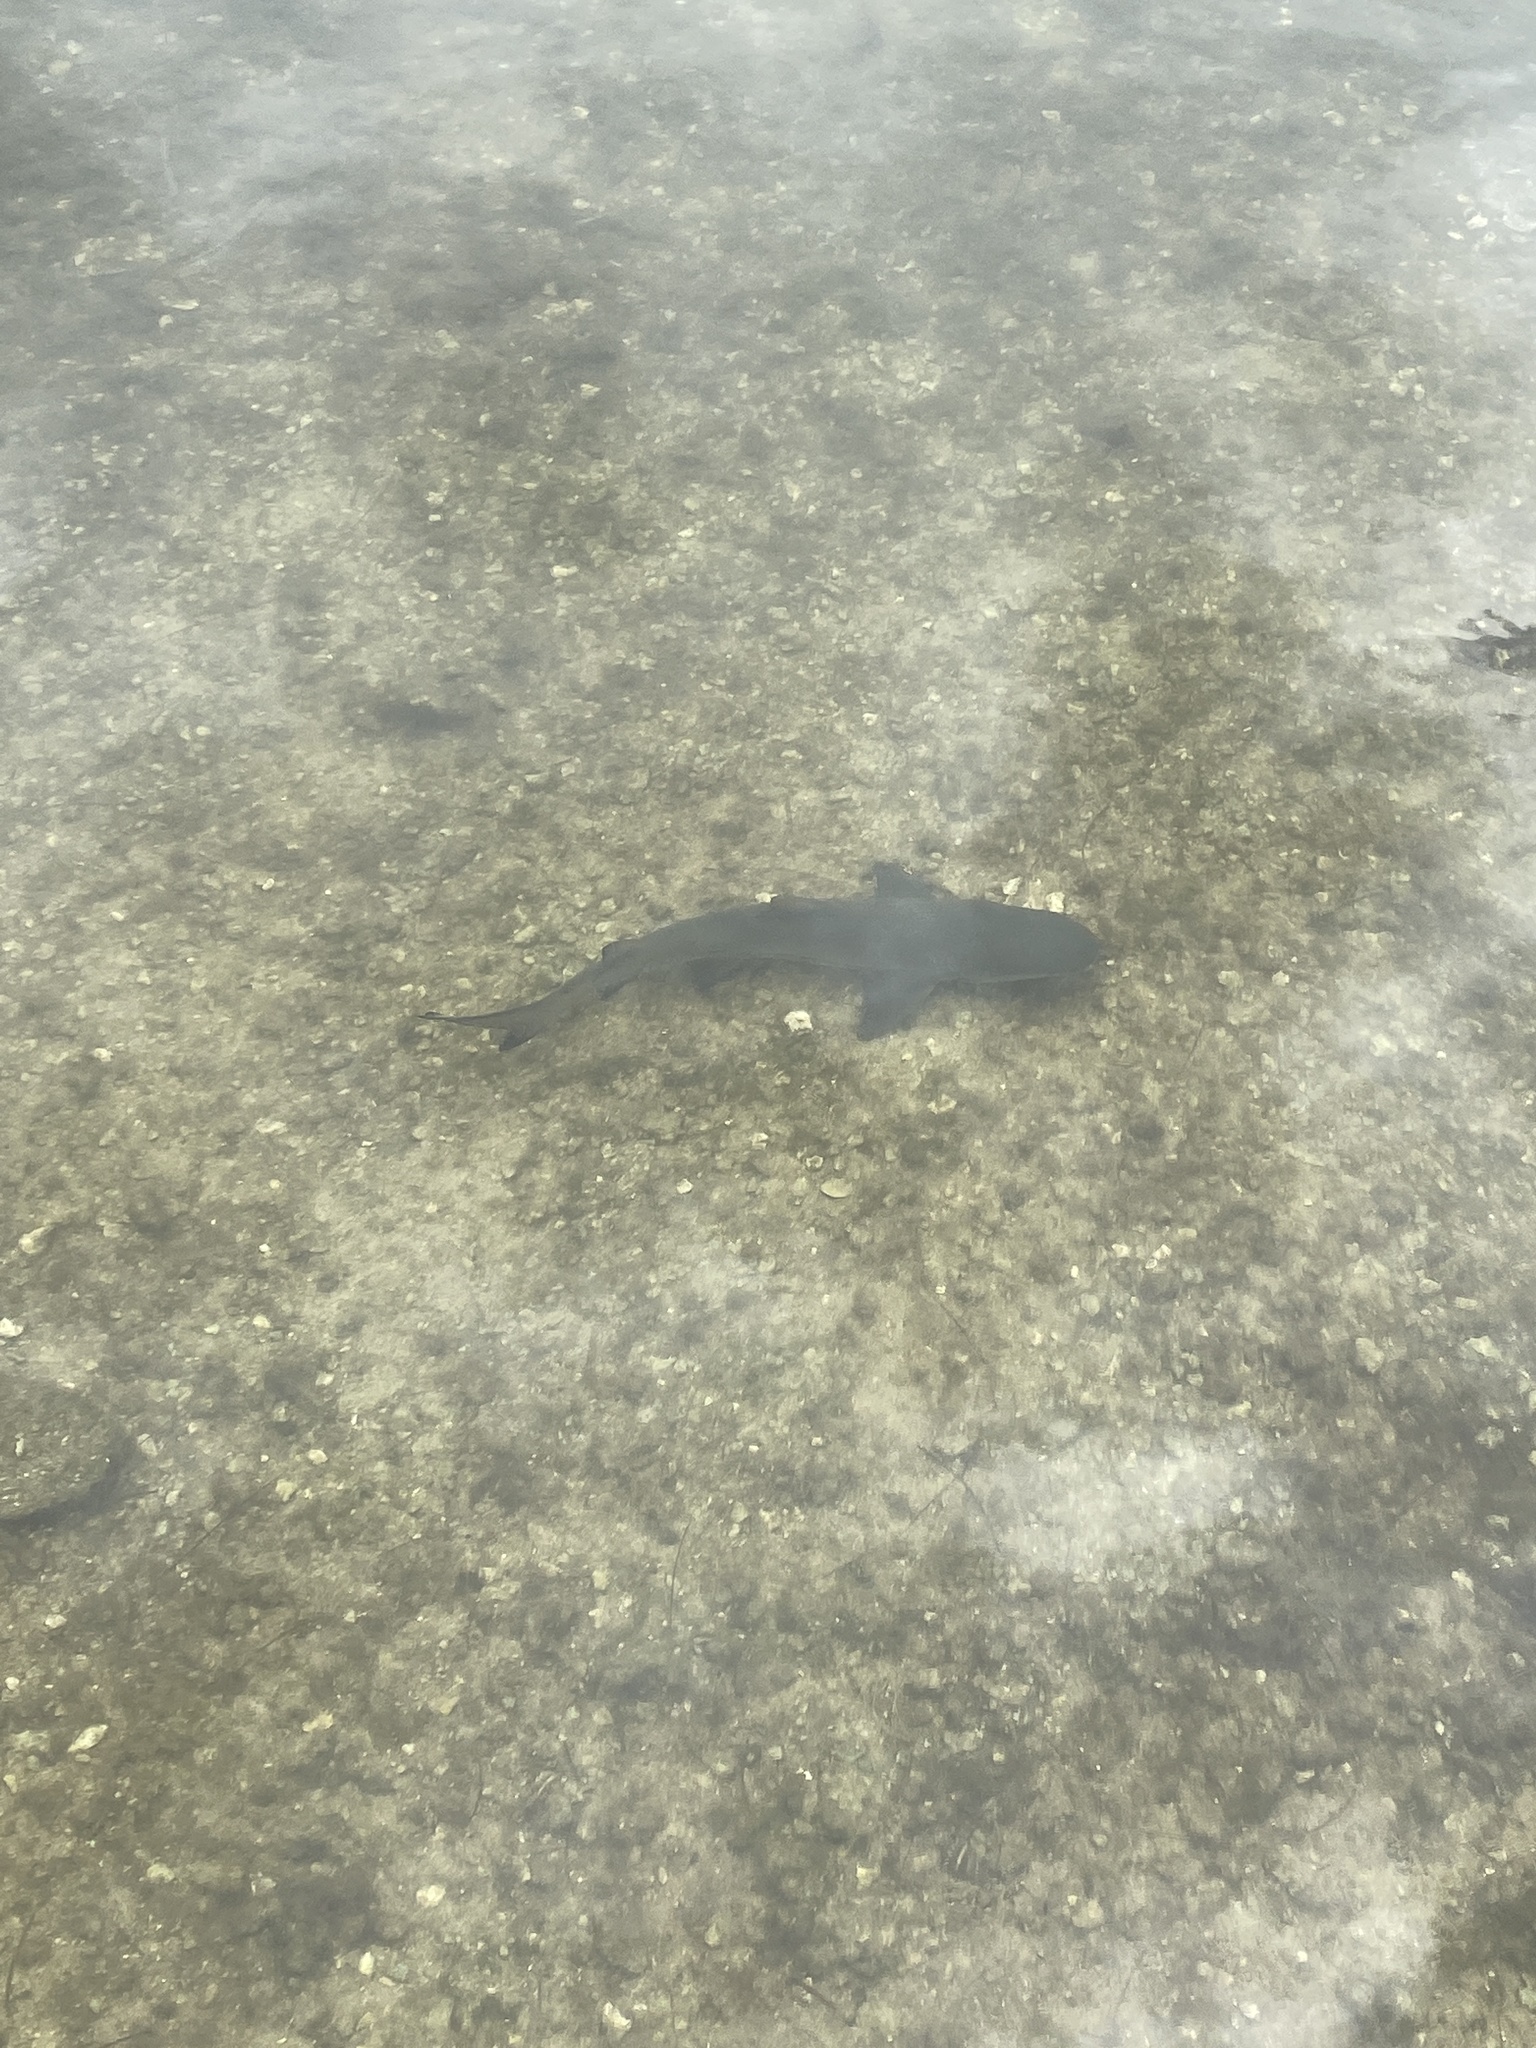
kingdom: Animalia
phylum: Chordata
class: Elasmobranchii
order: Carcharhiniformes
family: Carcharhinidae
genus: Negaprion
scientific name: Negaprion brevirostris
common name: Lemon shark
